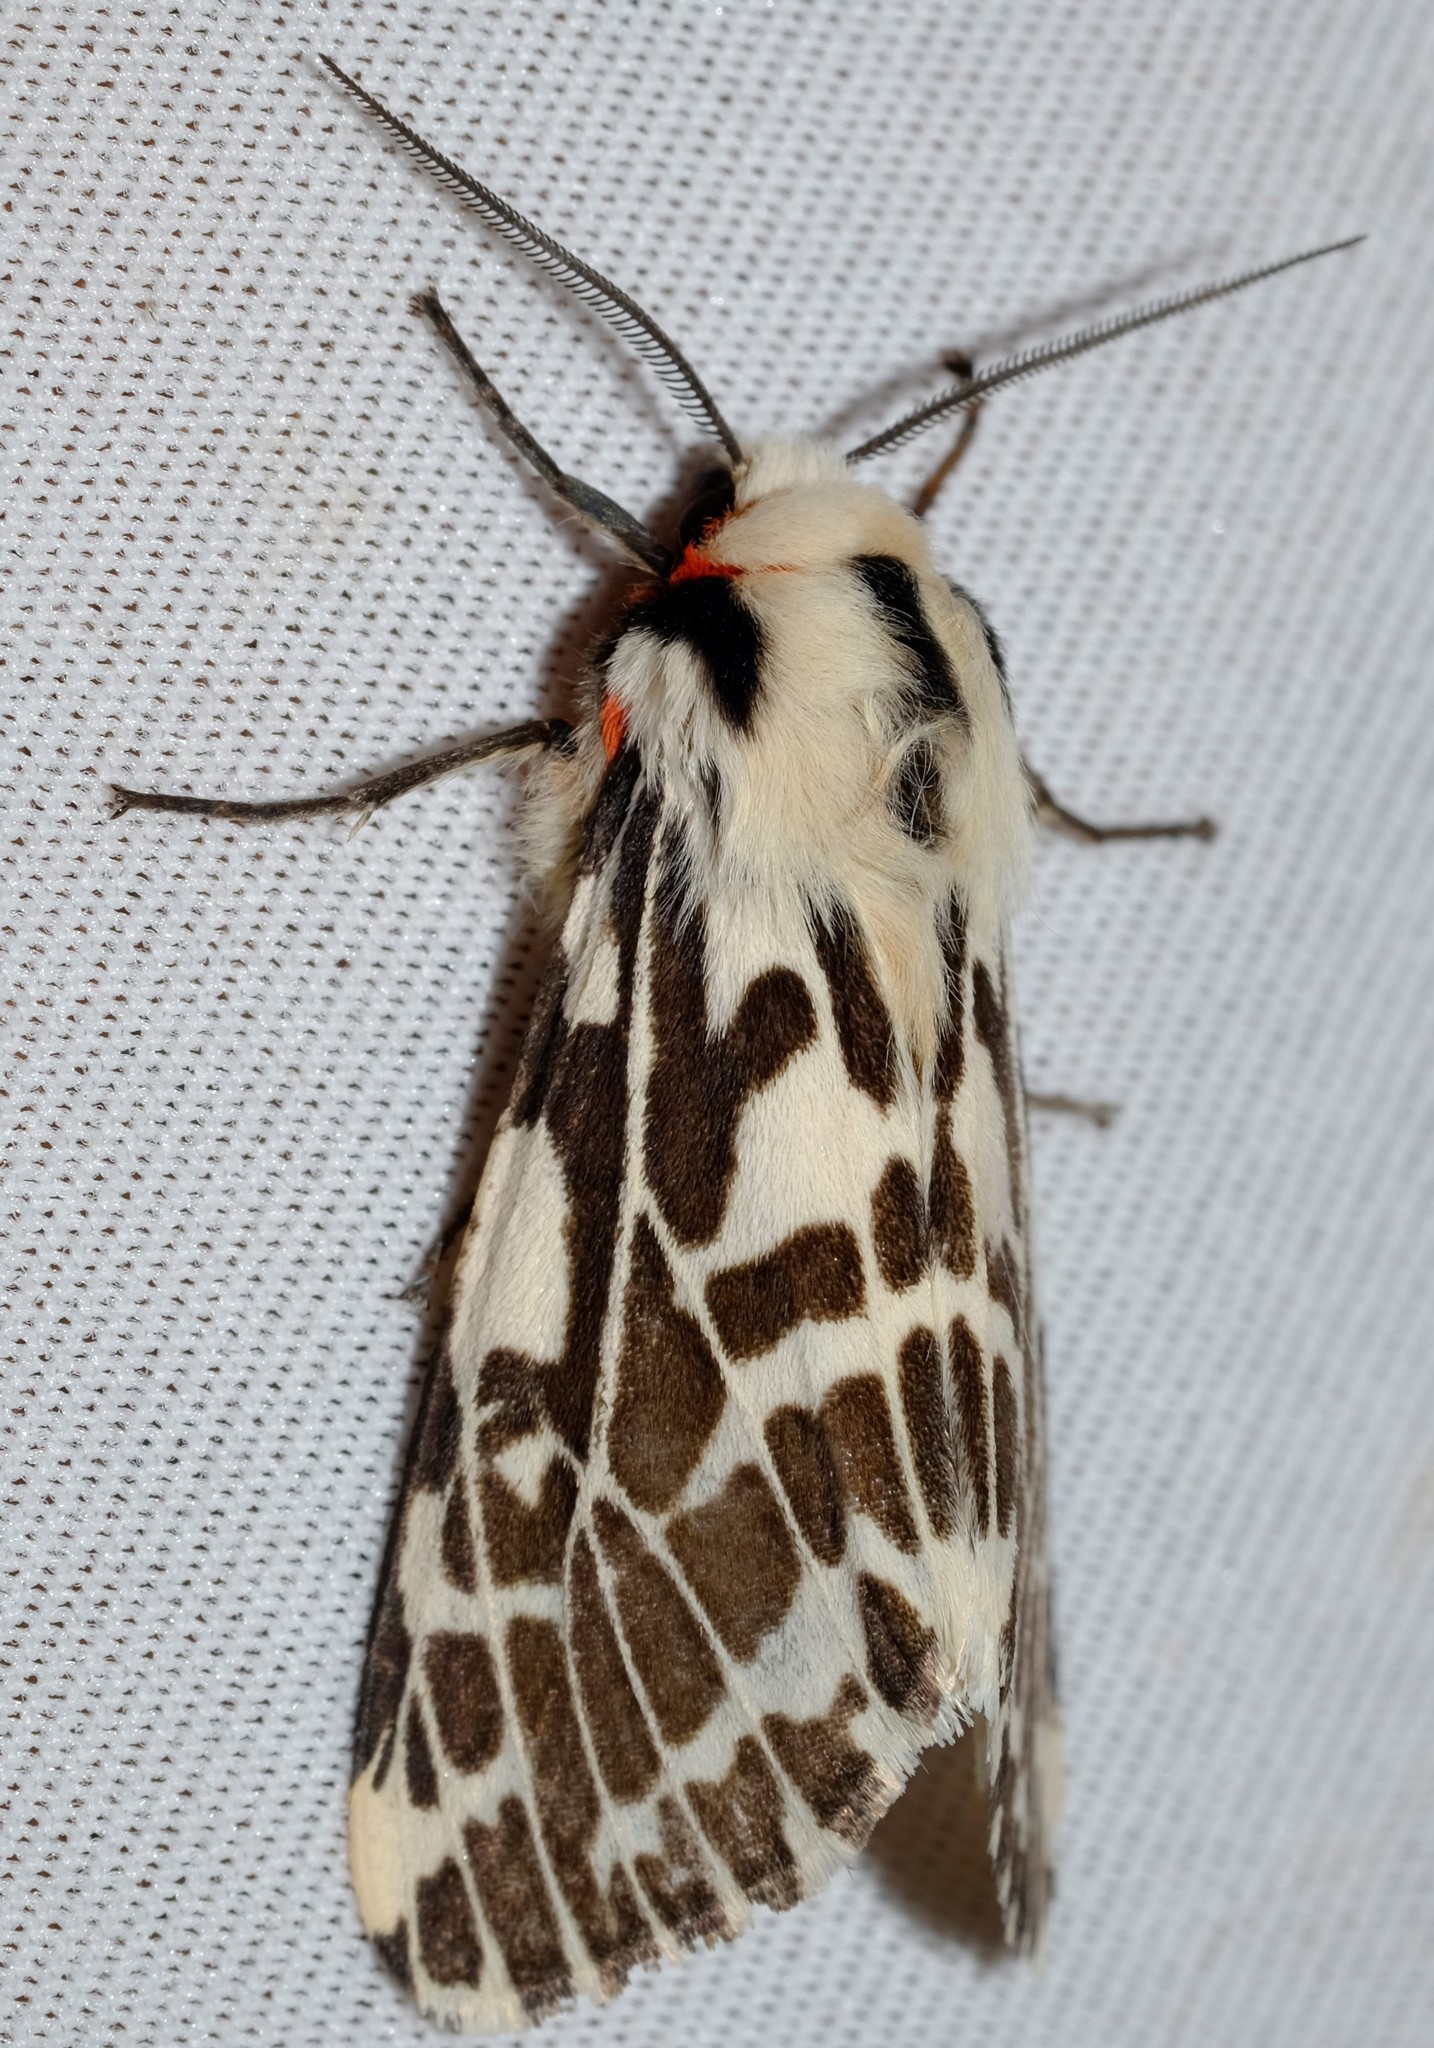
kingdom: Animalia
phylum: Arthropoda
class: Insecta
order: Lepidoptera
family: Erebidae
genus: Ardices
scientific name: Ardices glatignyi
